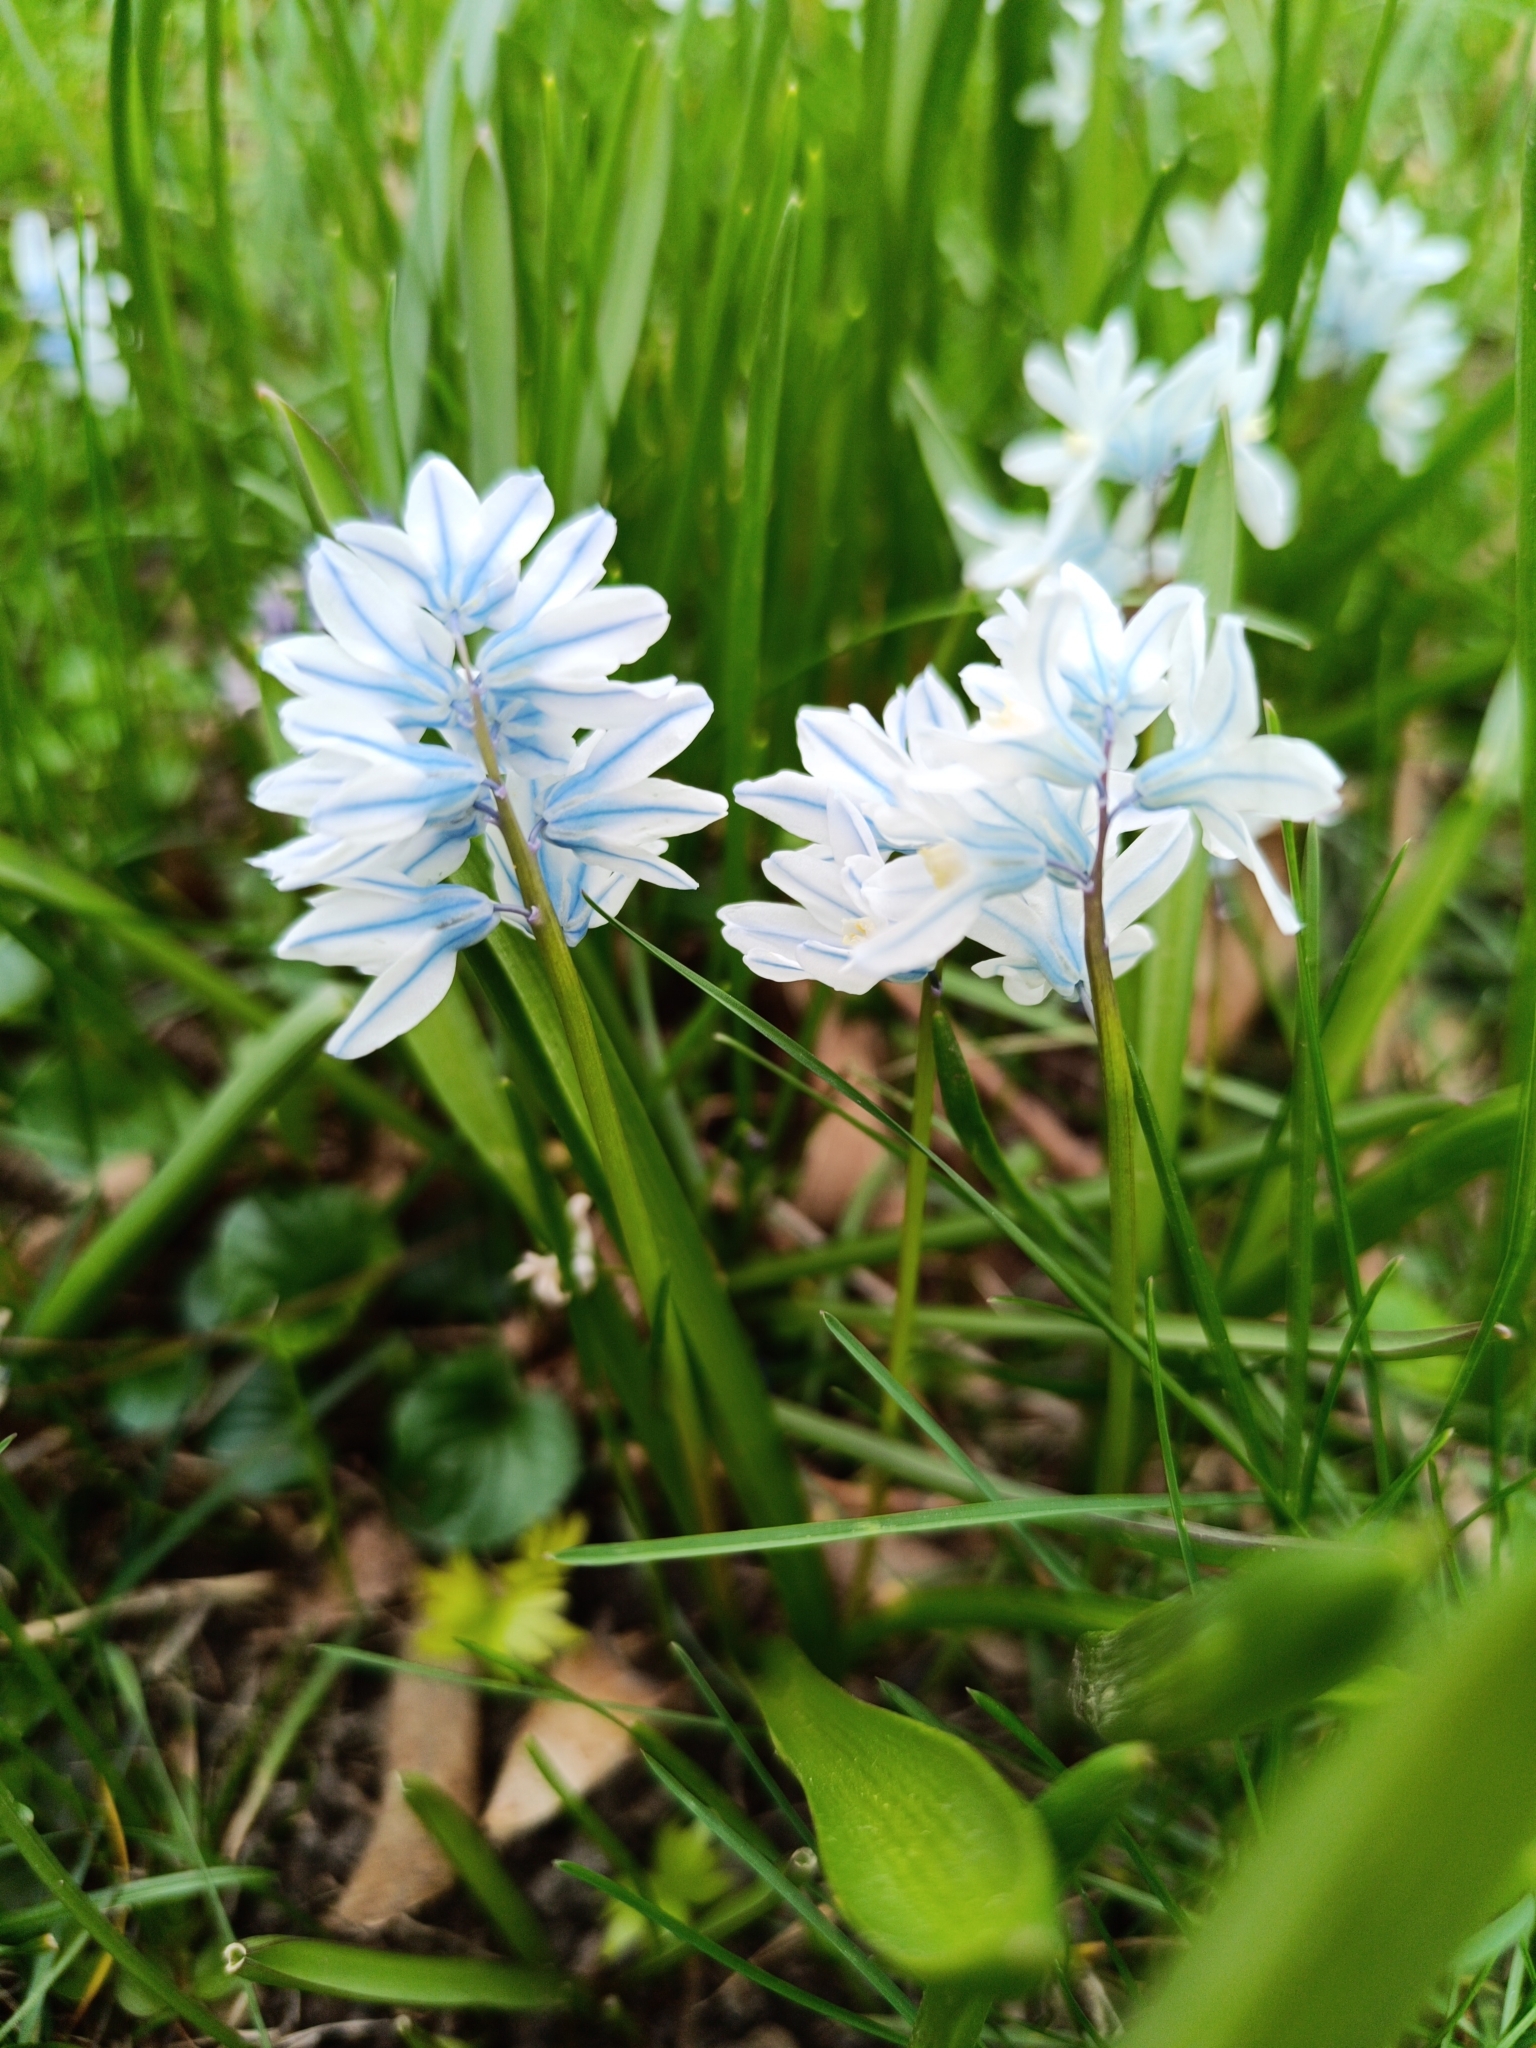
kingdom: Plantae
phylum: Tracheophyta
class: Liliopsida
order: Asparagales
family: Asparagaceae
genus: Puschkinia
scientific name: Puschkinia scilloides
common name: Striped squill
